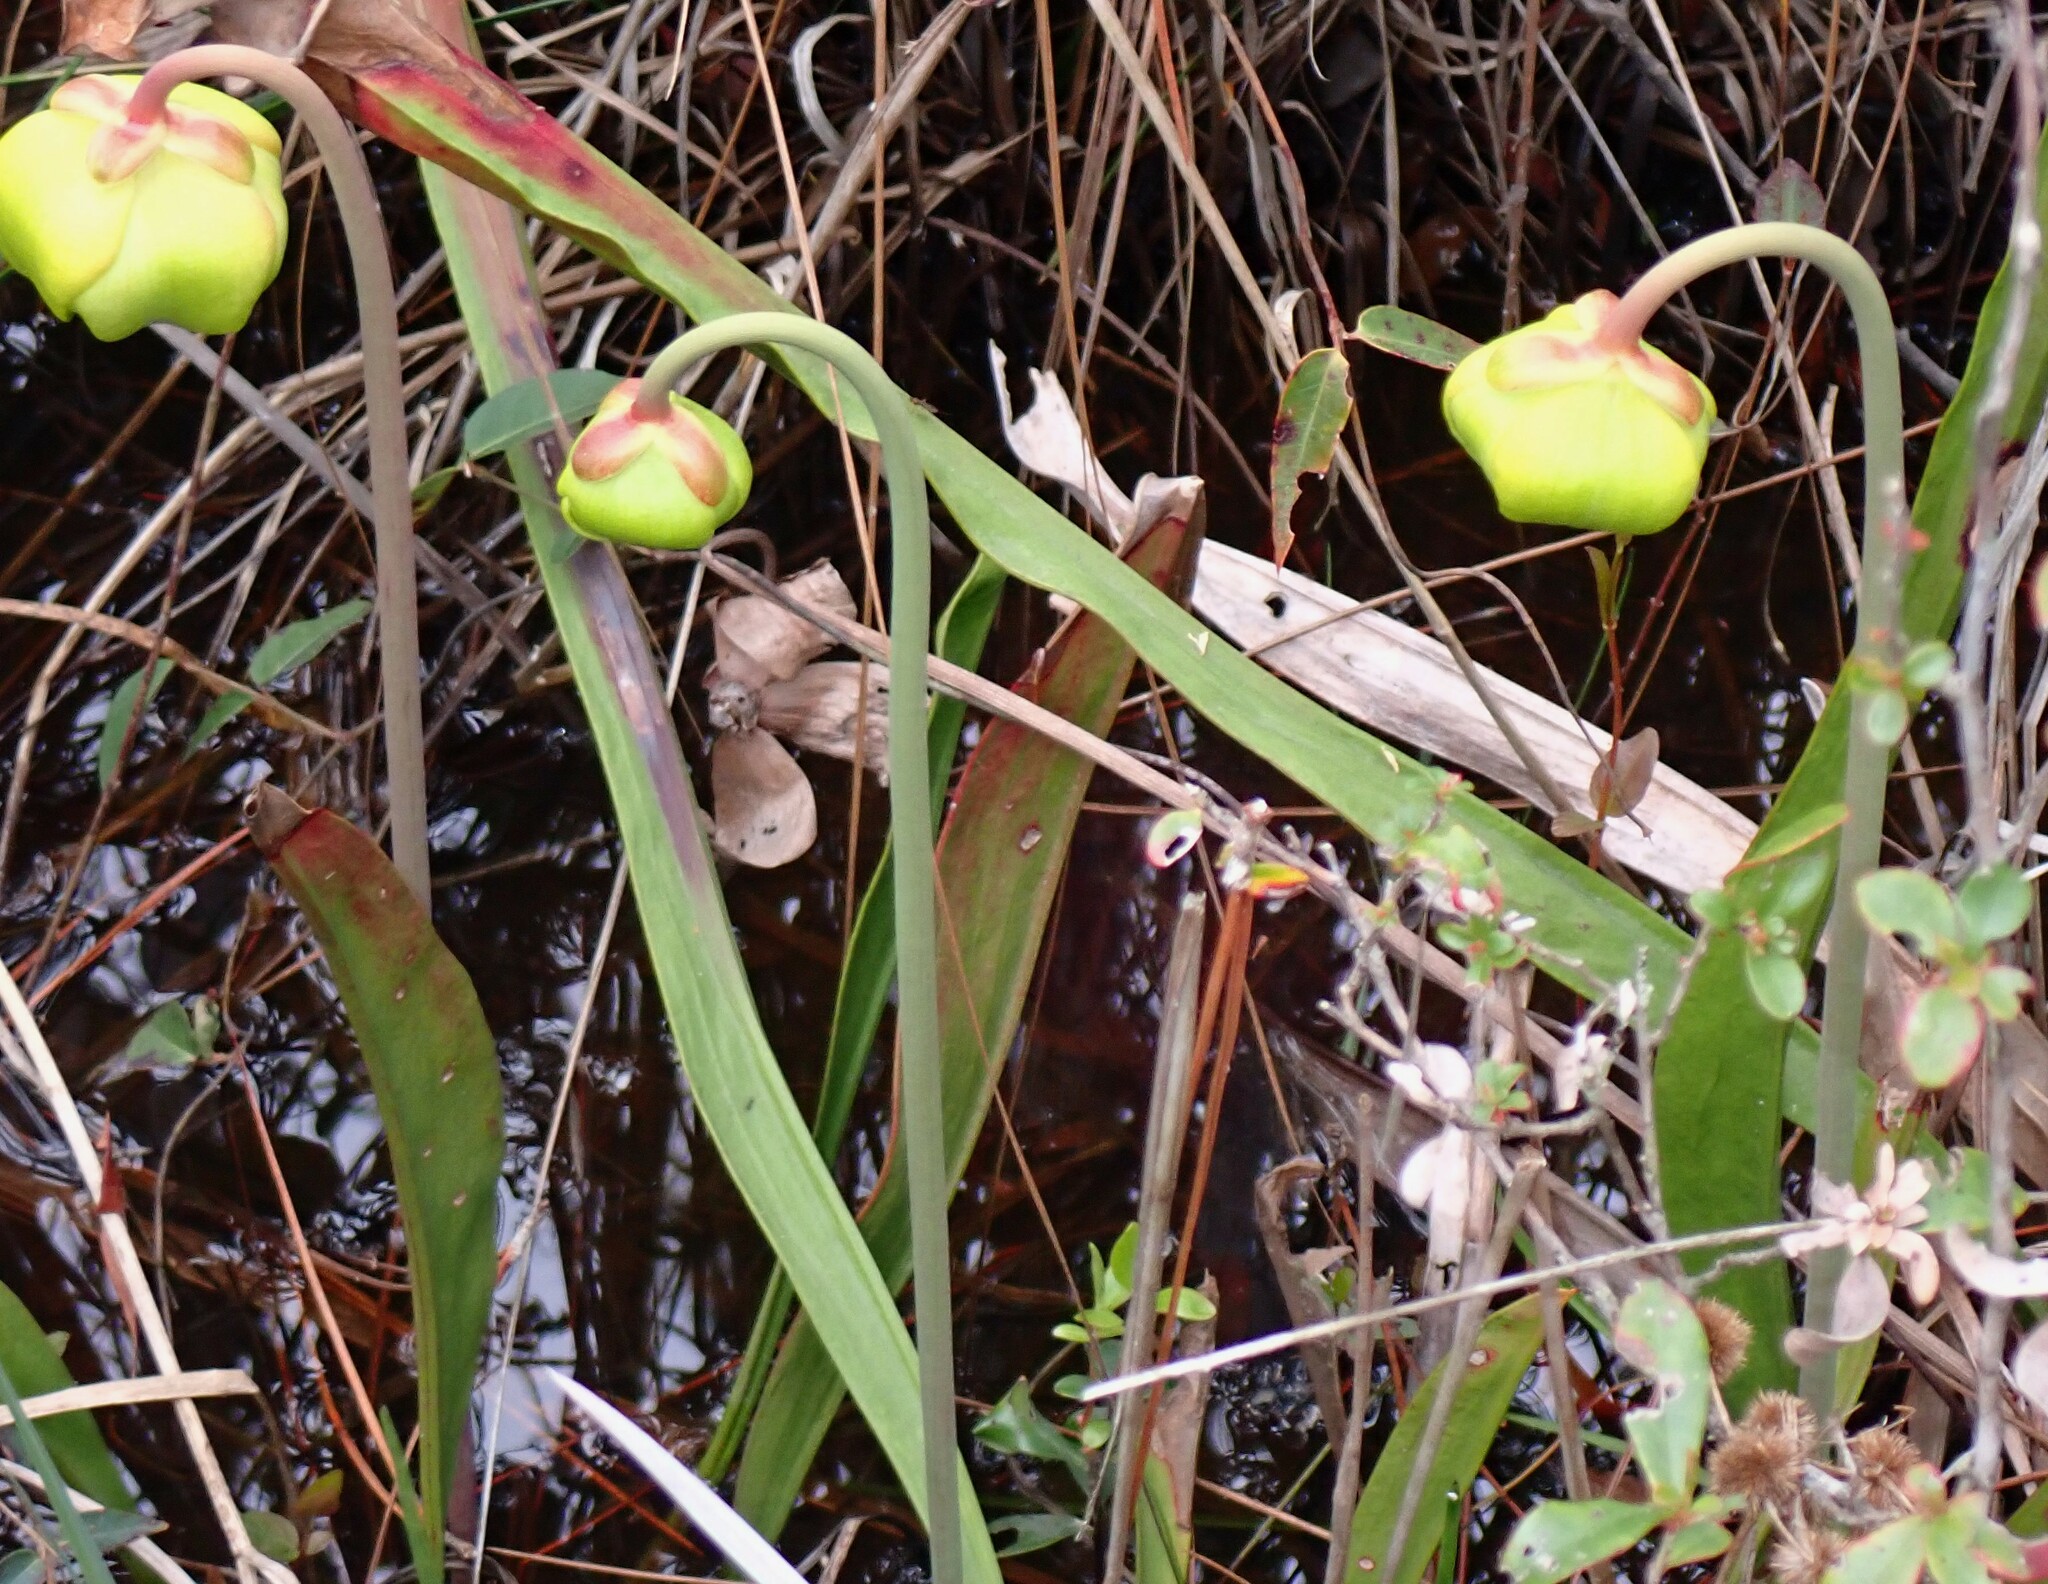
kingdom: Plantae
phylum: Tracheophyta
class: Magnoliopsida
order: Ericales
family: Sarraceniaceae
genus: Sarracenia
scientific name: Sarracenia flava
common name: Trumpets
